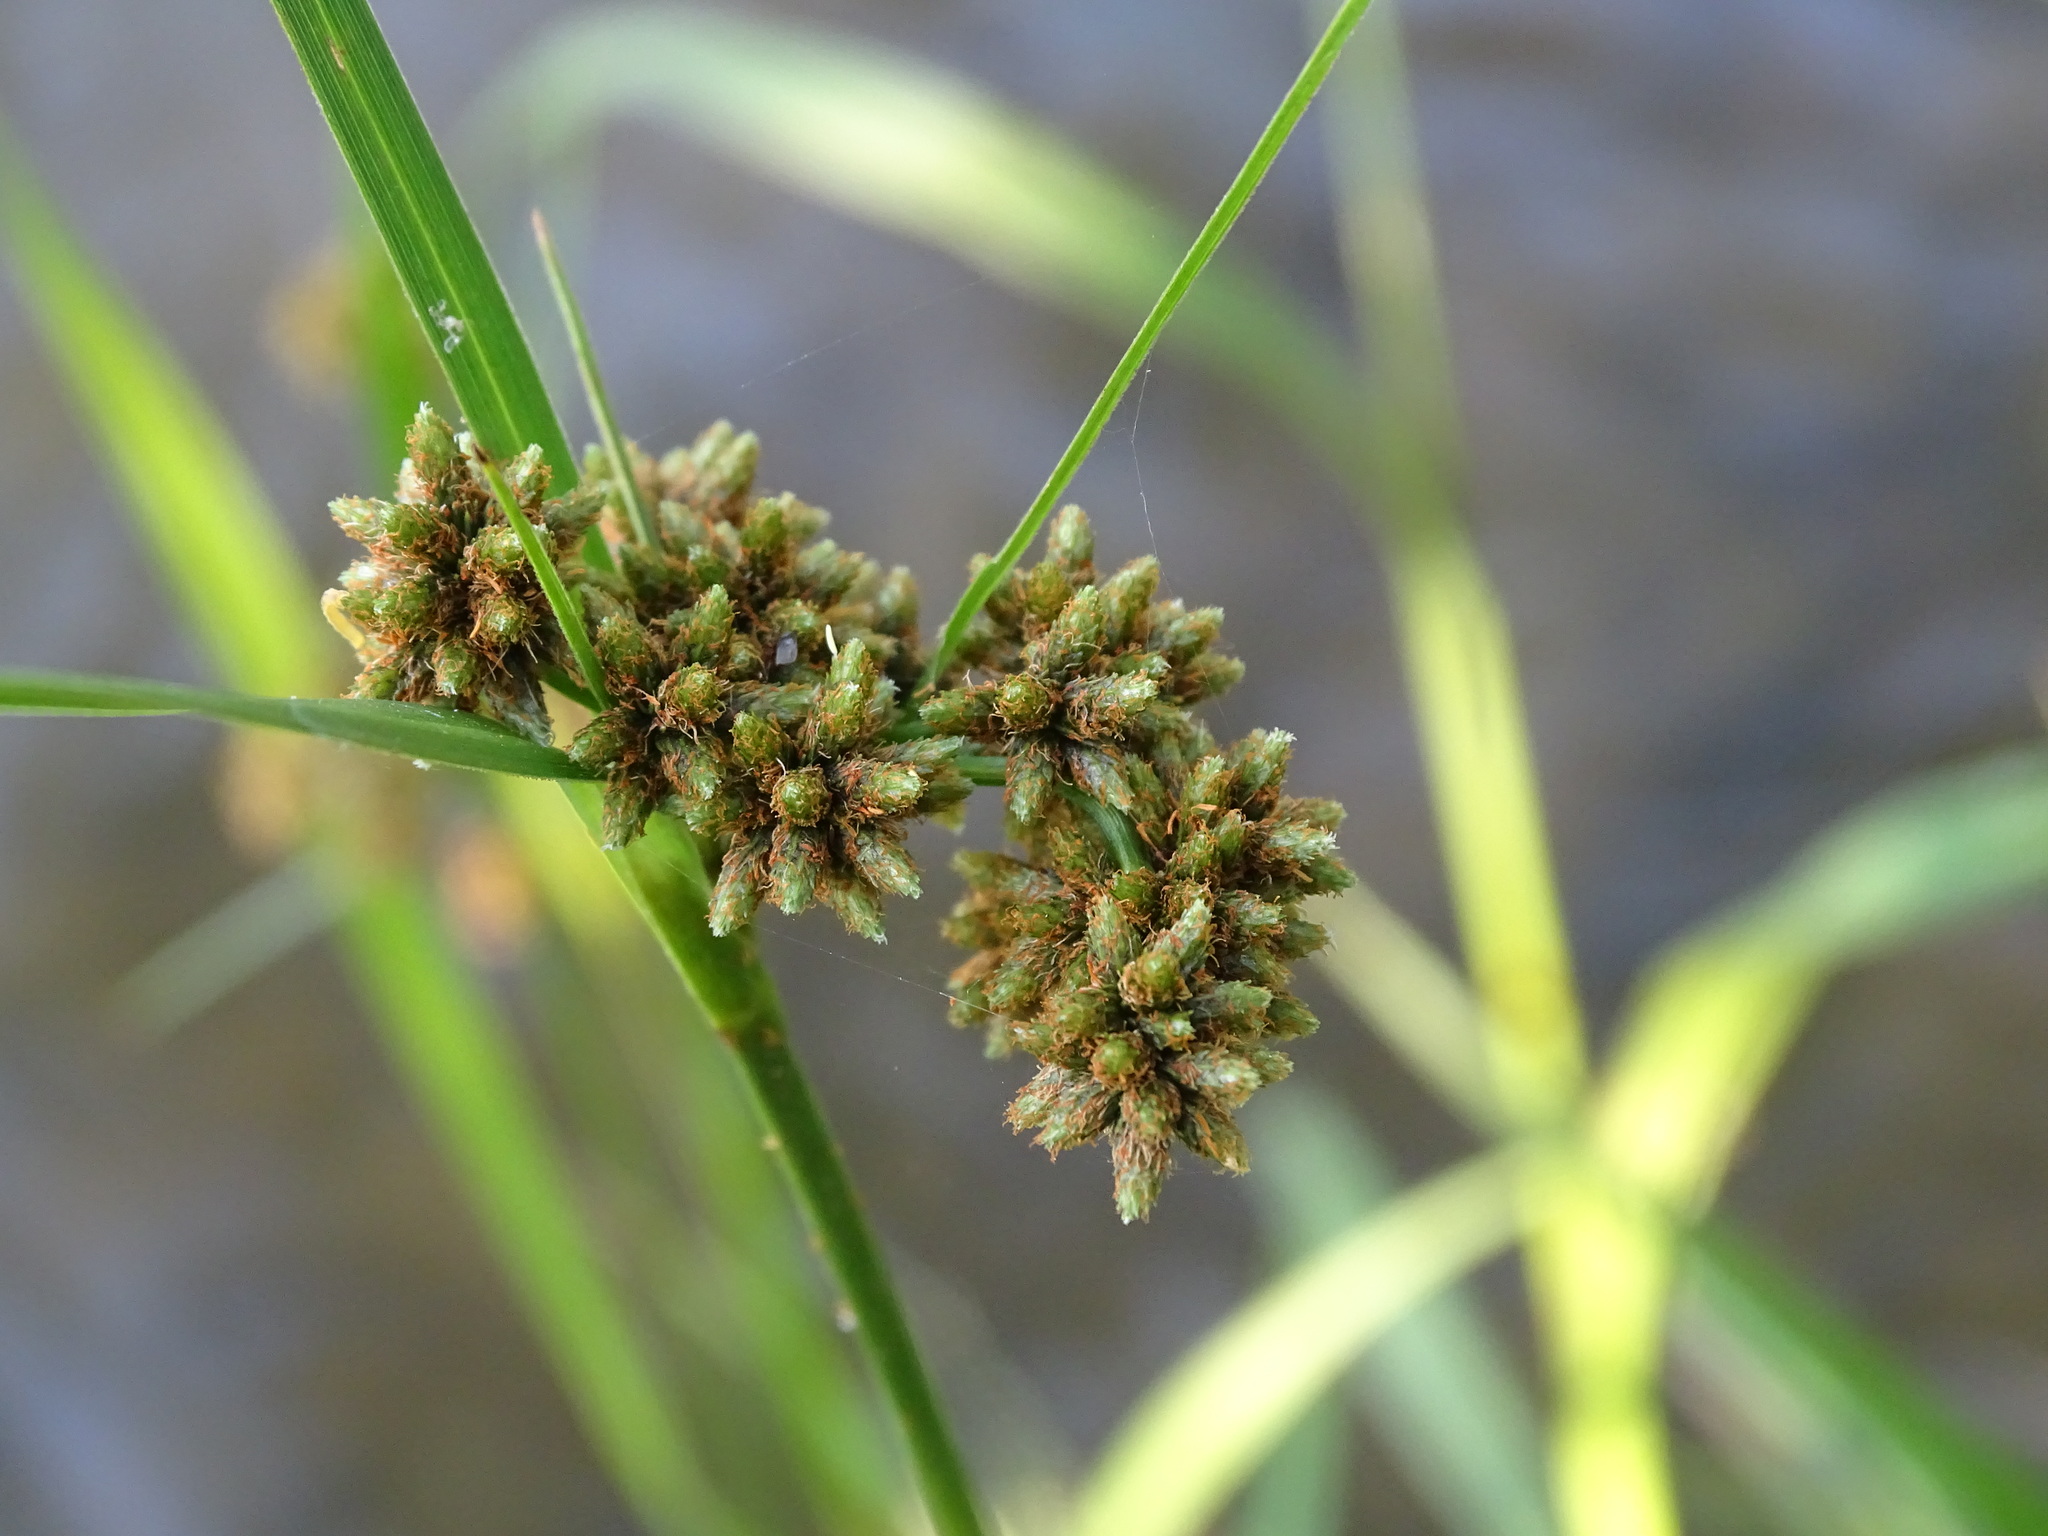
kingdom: Plantae
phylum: Tracheophyta
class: Liliopsida
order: Poales
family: Cyperaceae
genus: Scirpus
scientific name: Scirpus atrovirens
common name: Black bulrush
